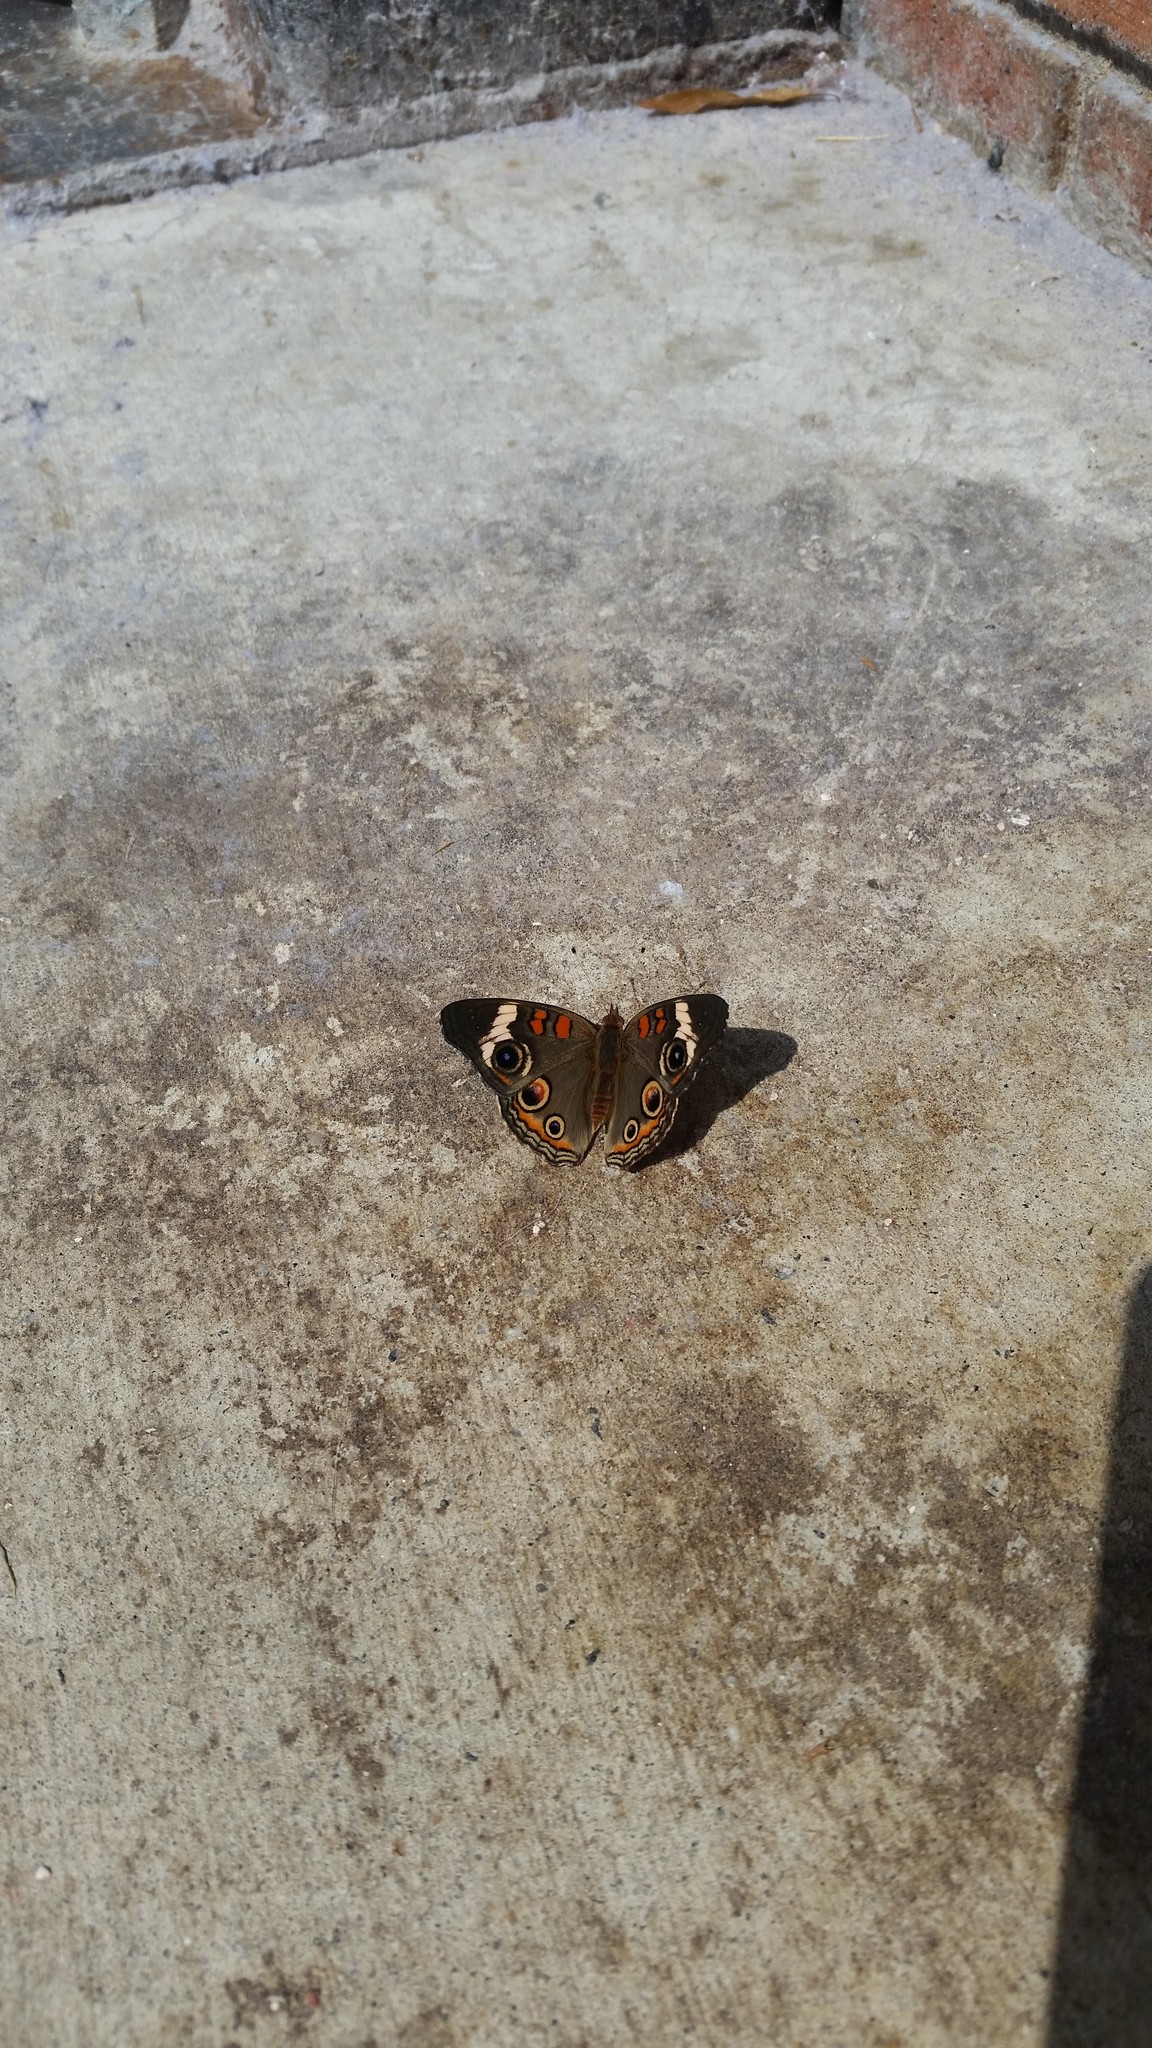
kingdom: Animalia
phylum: Arthropoda
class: Insecta
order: Lepidoptera
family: Nymphalidae
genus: Junonia
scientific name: Junonia coenia
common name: Common buckeye
